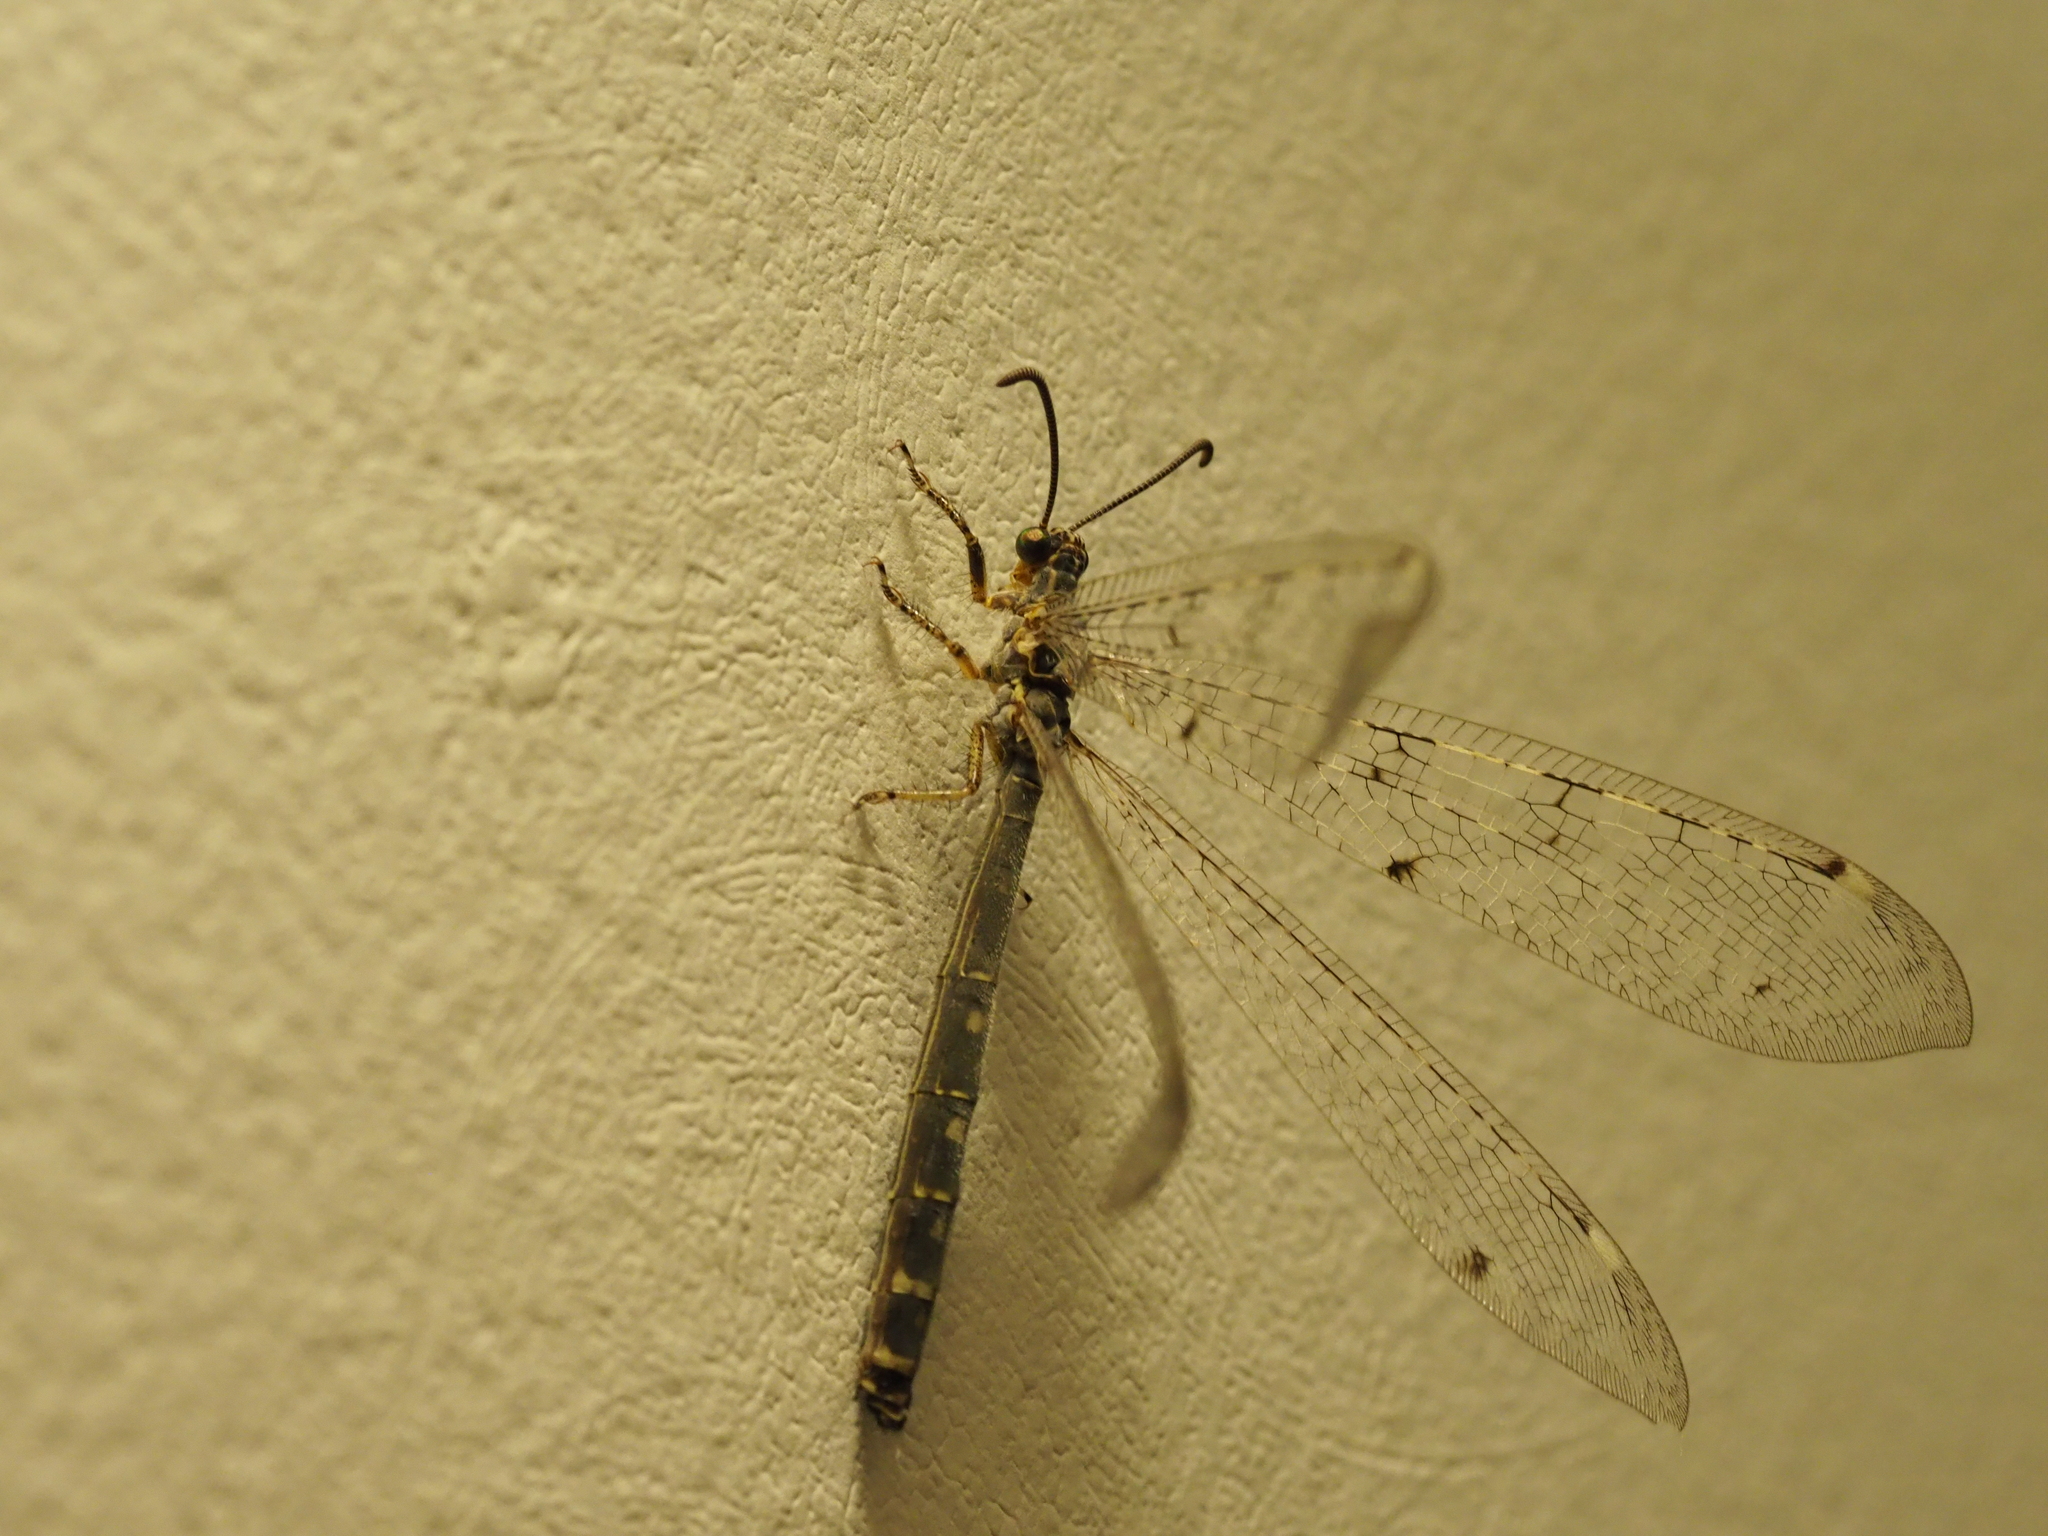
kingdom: Animalia
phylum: Arthropoda
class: Insecta
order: Neuroptera
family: Myrmeleontidae
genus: Distoleon
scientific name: Distoleon tetragrammicus
